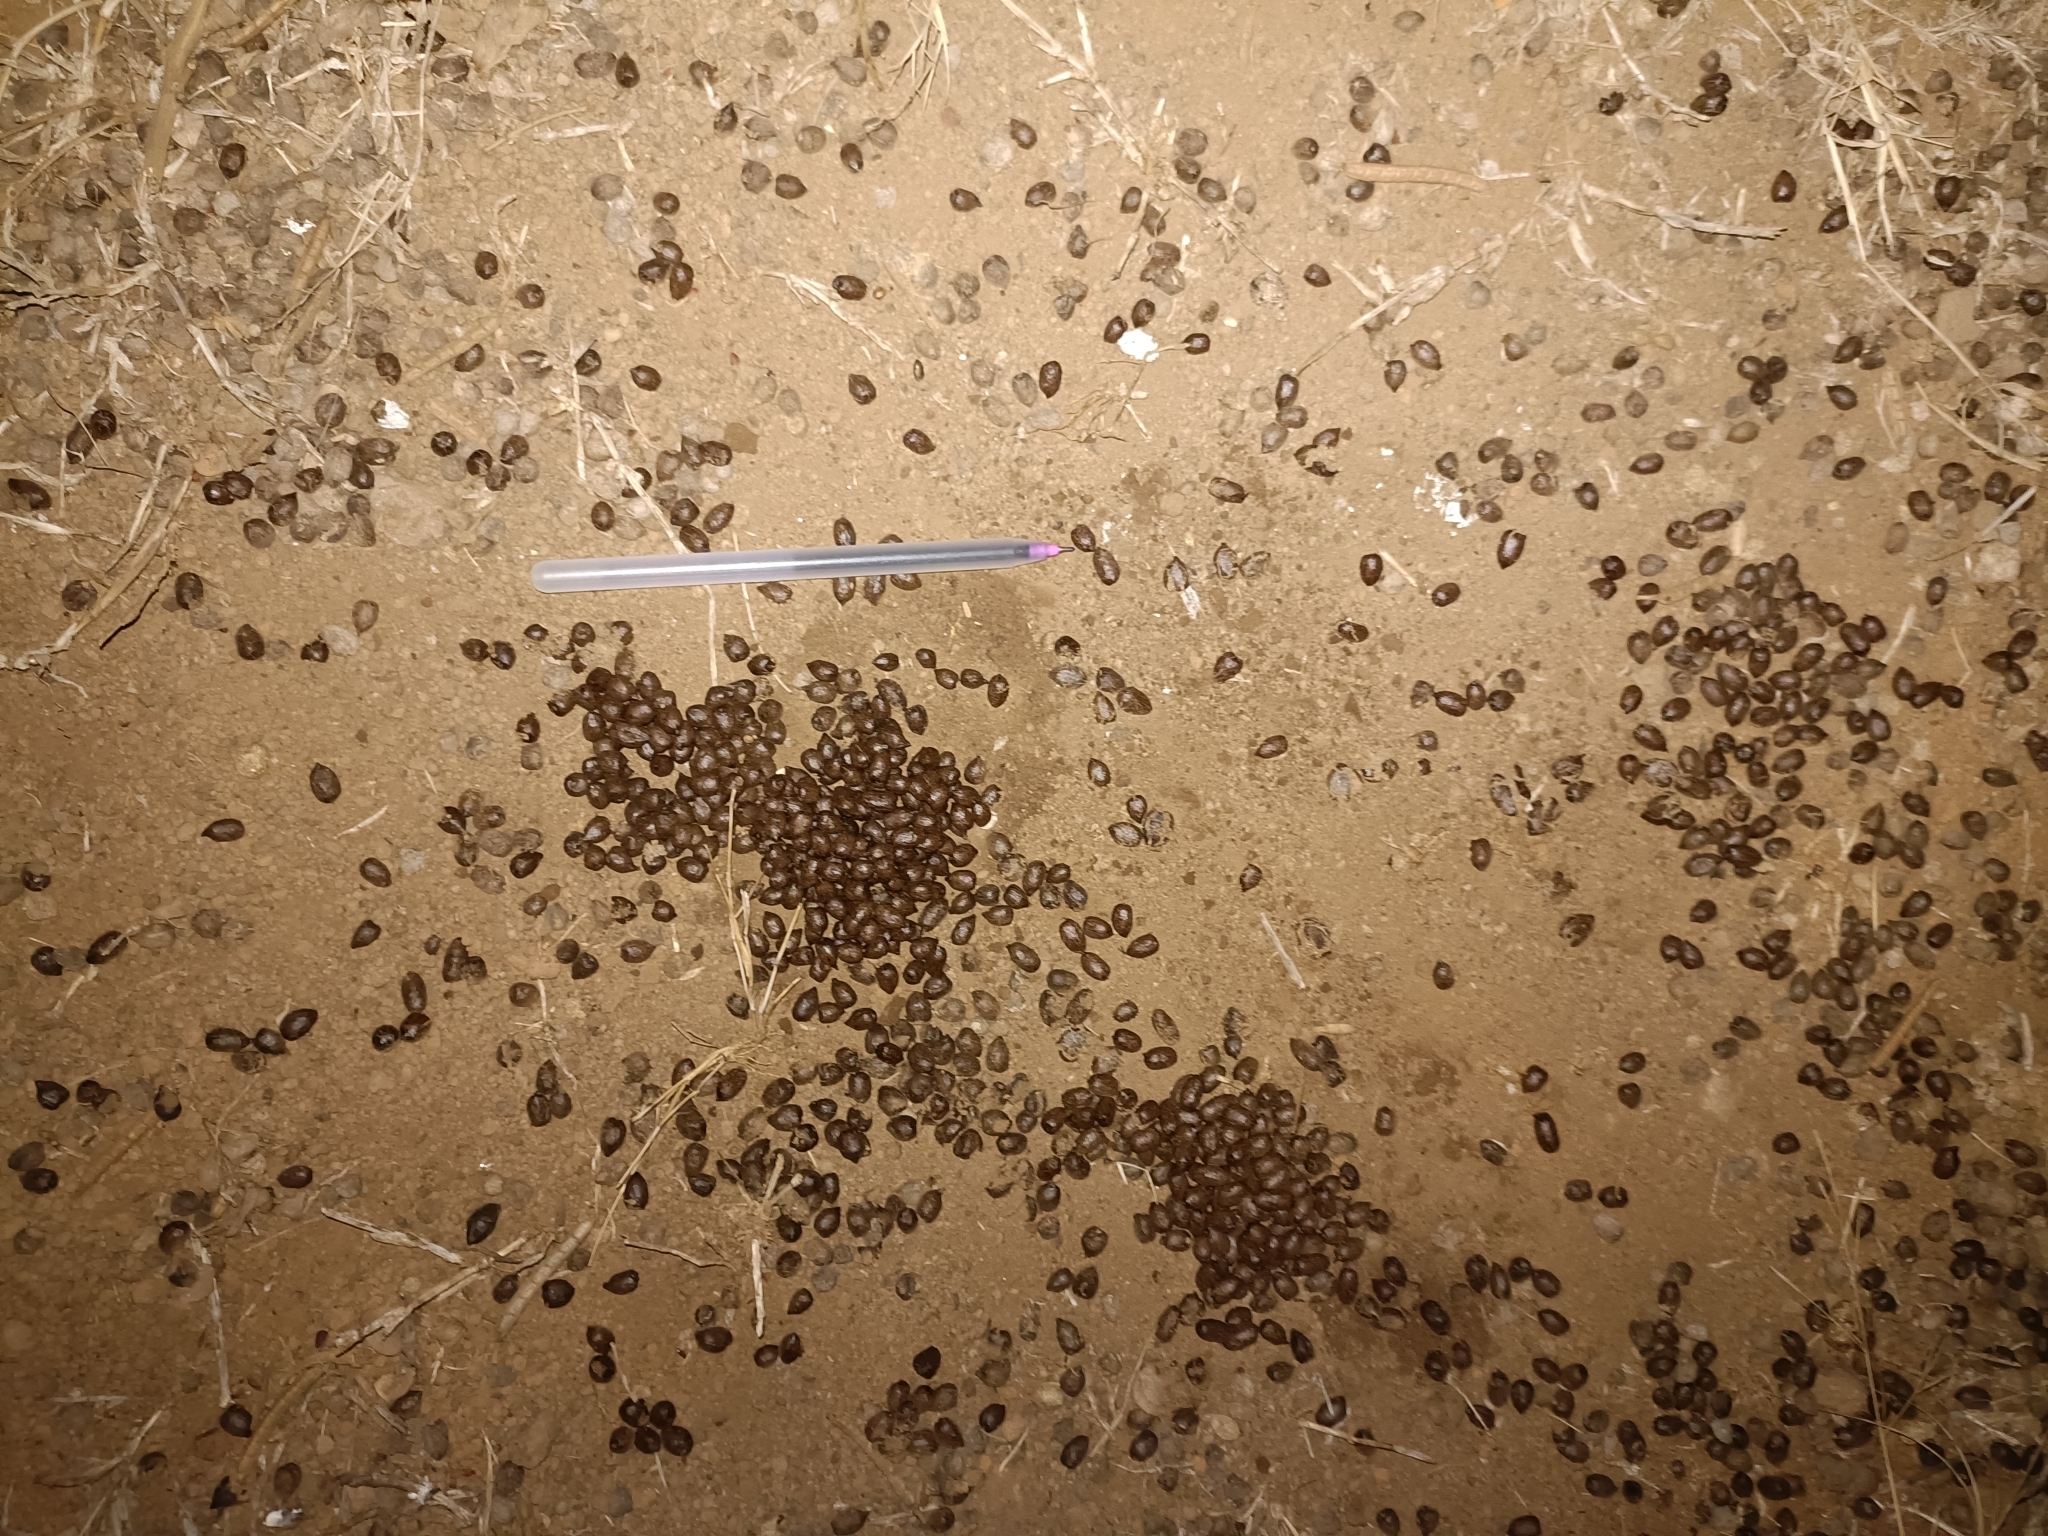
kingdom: Animalia
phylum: Chordata
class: Mammalia
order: Artiodactyla
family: Bovidae
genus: Gazella
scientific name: Gazella bennettii
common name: Indian gazelle
